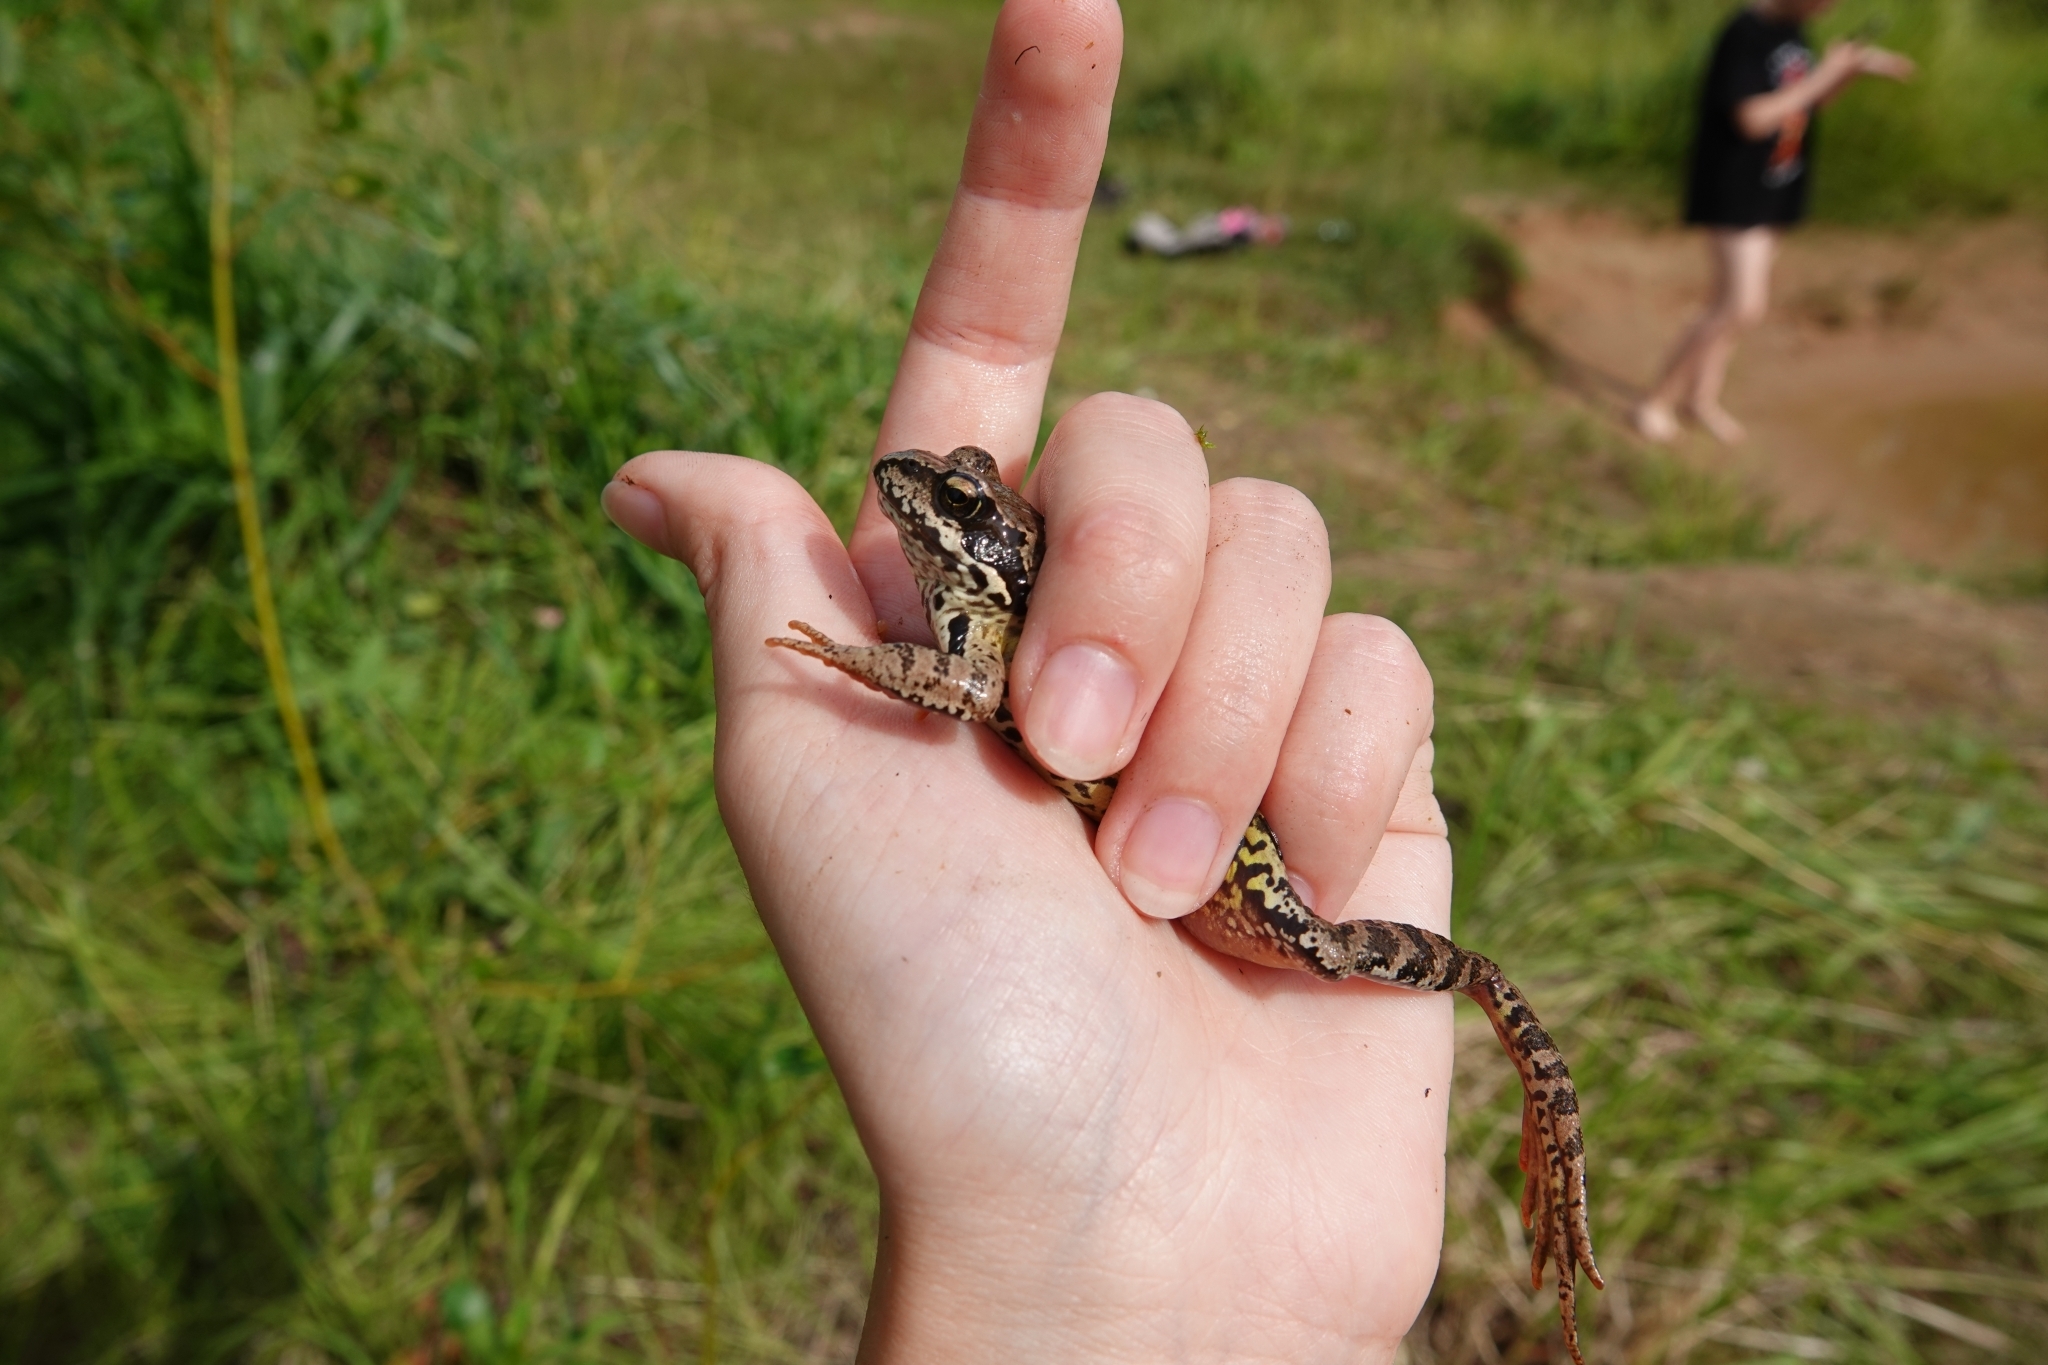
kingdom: Animalia
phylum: Chordata
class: Amphibia
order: Anura
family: Ranidae
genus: Rana
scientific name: Rana temporaria
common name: Common frog
